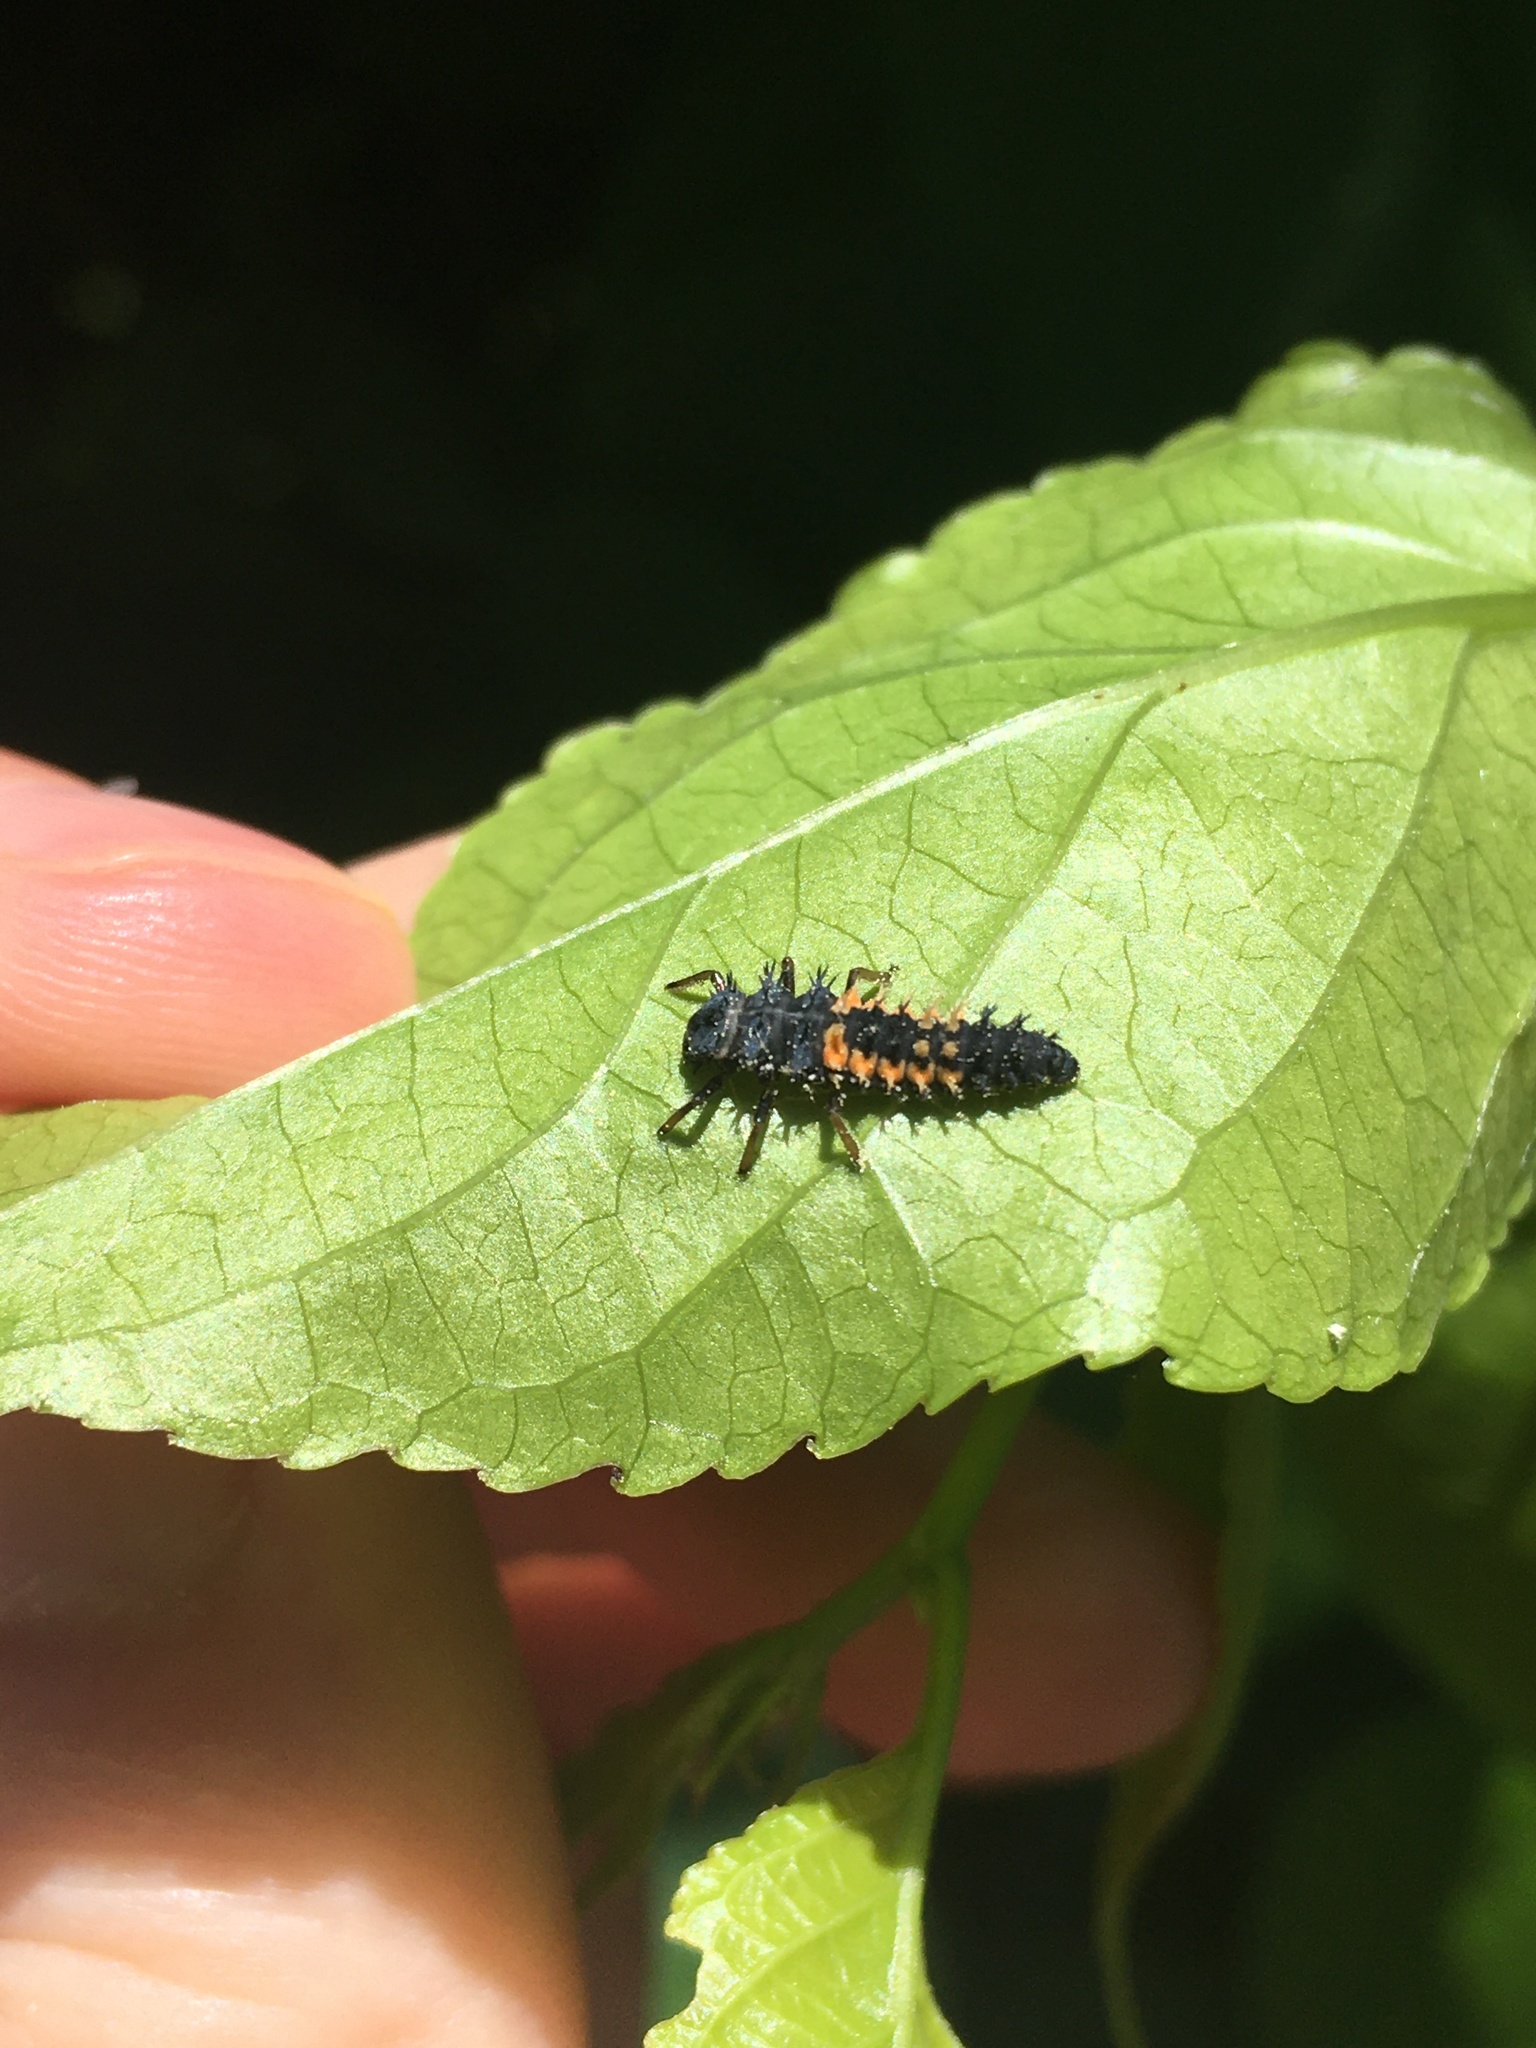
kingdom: Animalia
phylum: Arthropoda
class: Insecta
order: Coleoptera
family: Coccinellidae
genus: Harmonia
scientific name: Harmonia axyridis
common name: Harlequin ladybird
